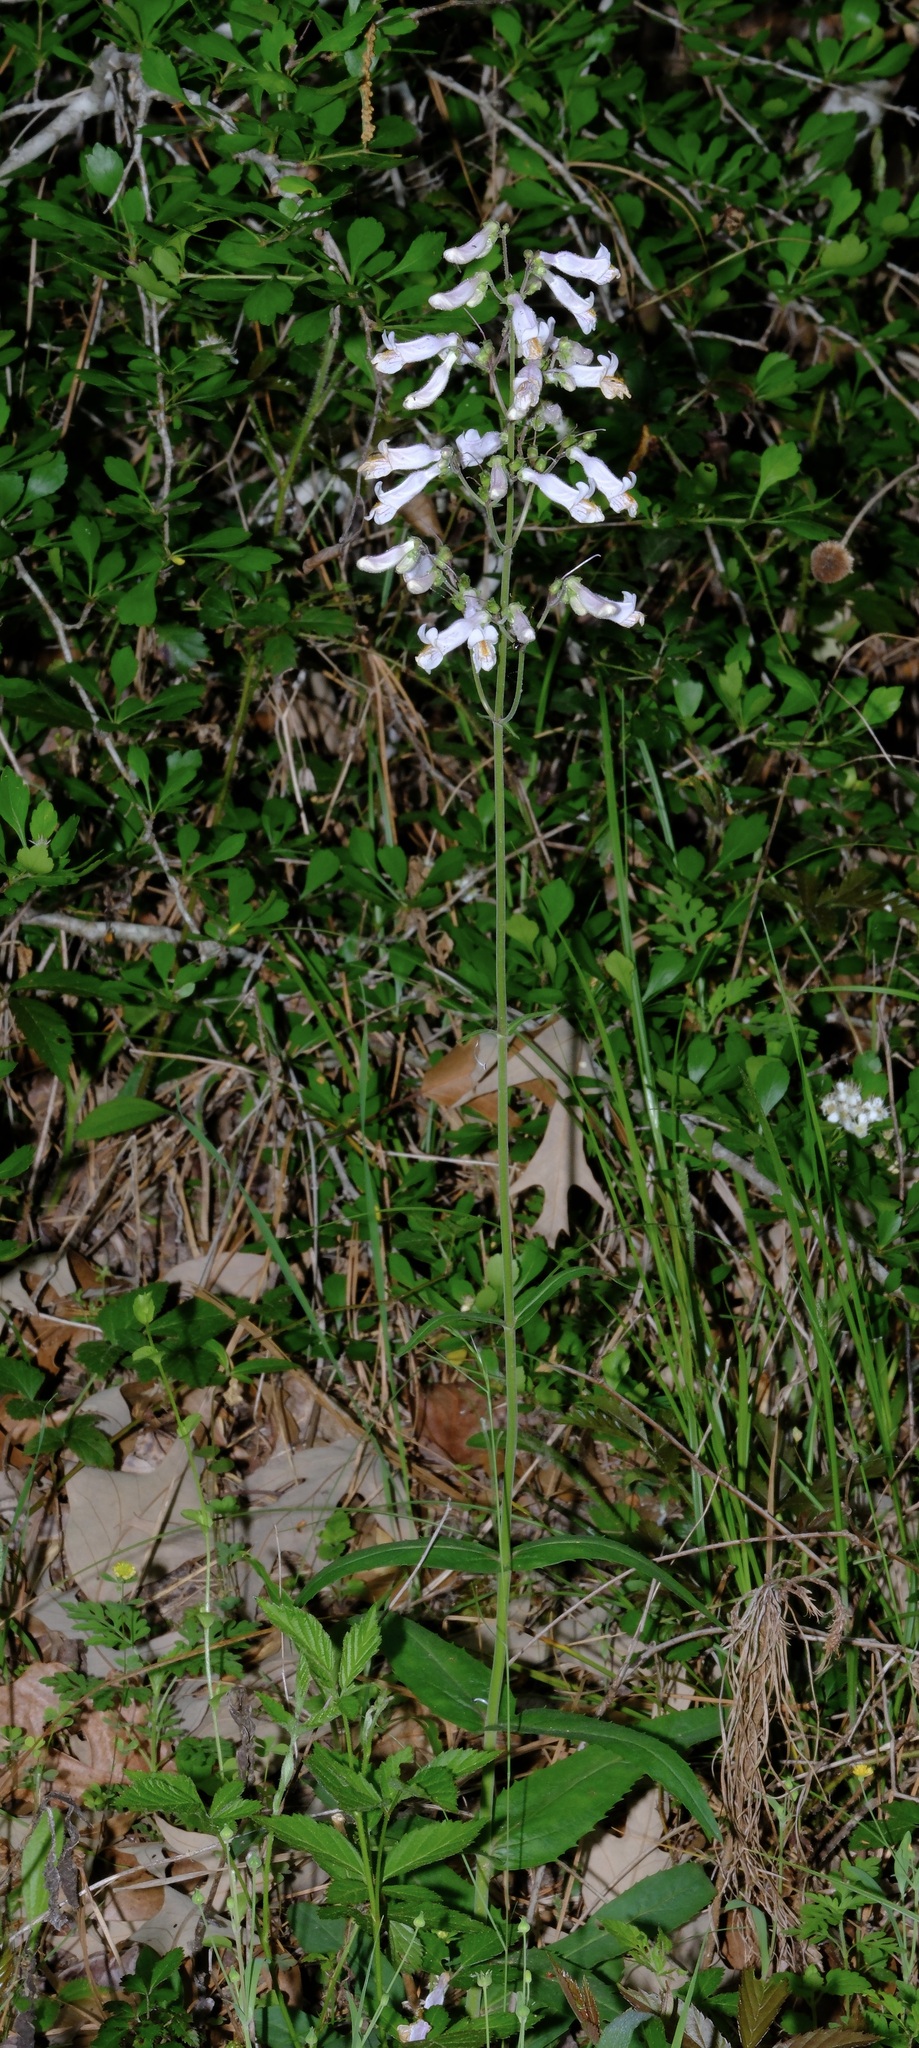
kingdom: Plantae
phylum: Tracheophyta
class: Magnoliopsida
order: Lamiales
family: Plantaginaceae
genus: Penstemon
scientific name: Penstemon laxiflorus
